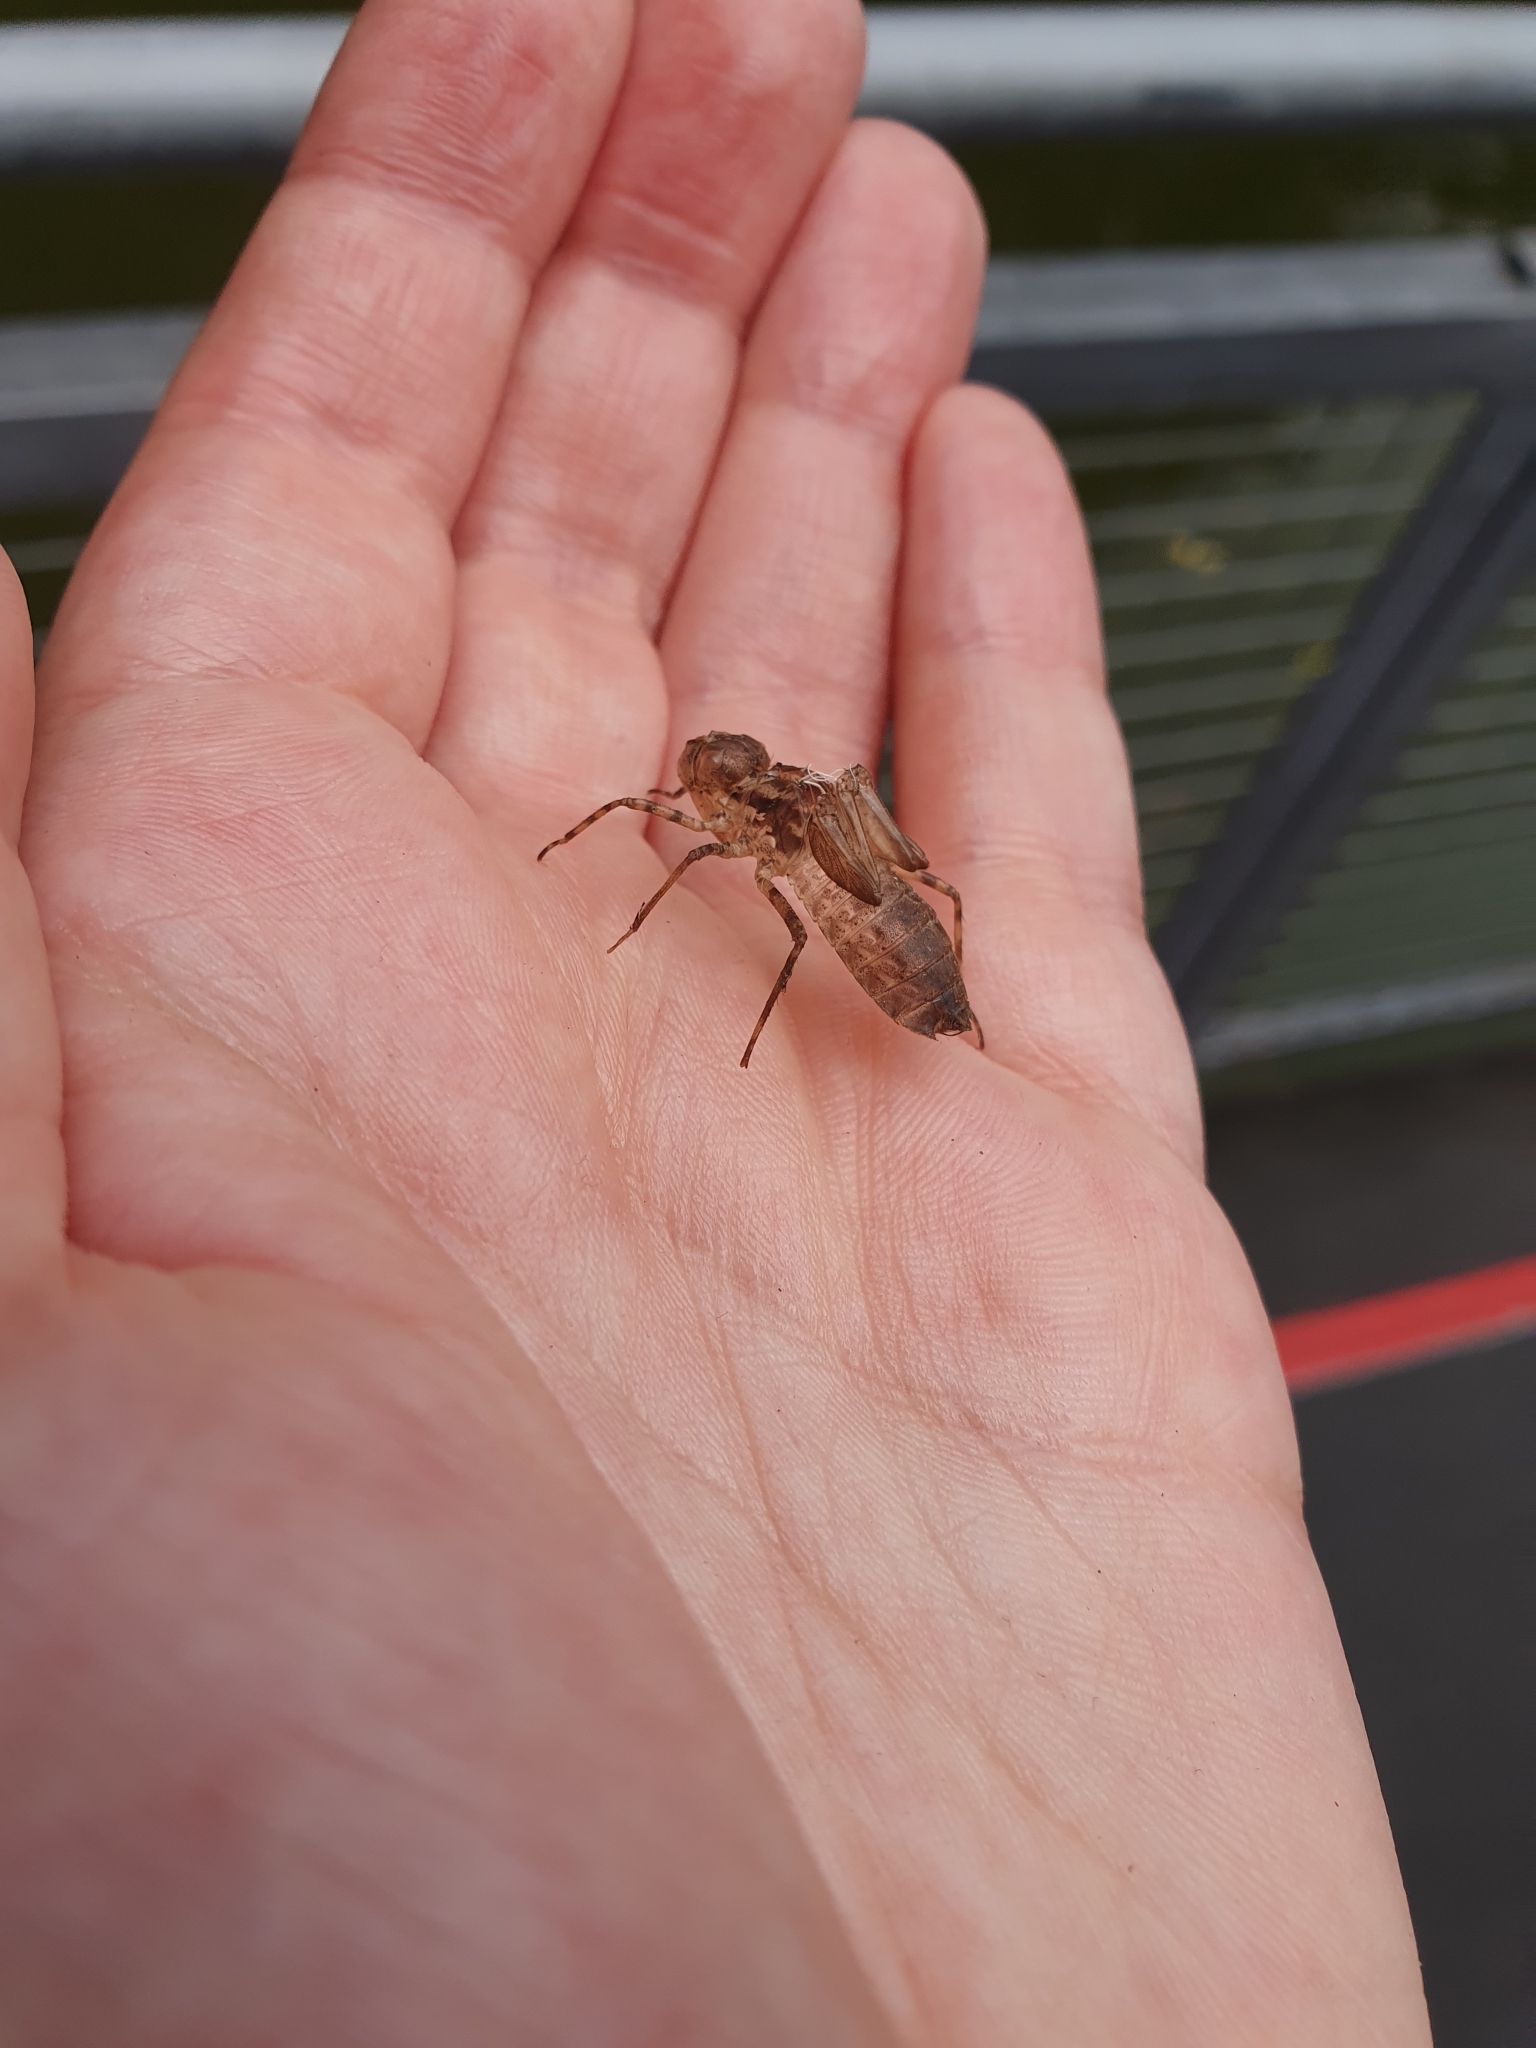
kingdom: Animalia
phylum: Arthropoda
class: Insecta
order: Odonata
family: Corduliidae
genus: Procordulia
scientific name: Procordulia smithii
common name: Ranger dragonfly
